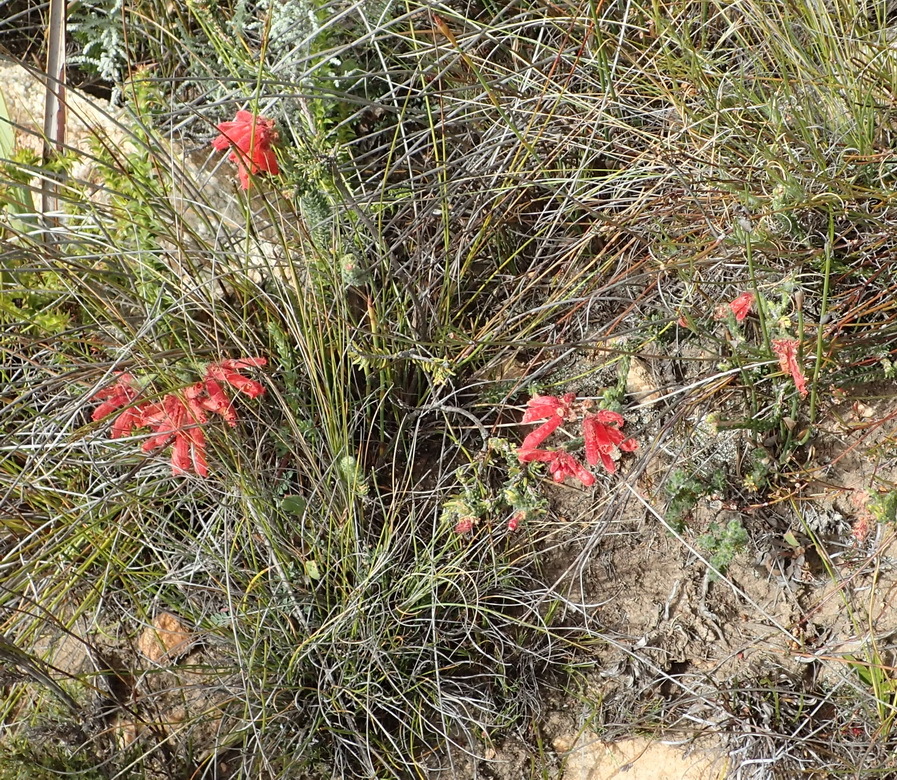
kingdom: Plantae
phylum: Tracheophyta
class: Magnoliopsida
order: Ericales
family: Ericaceae
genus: Erica
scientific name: Erica cerinthoides
